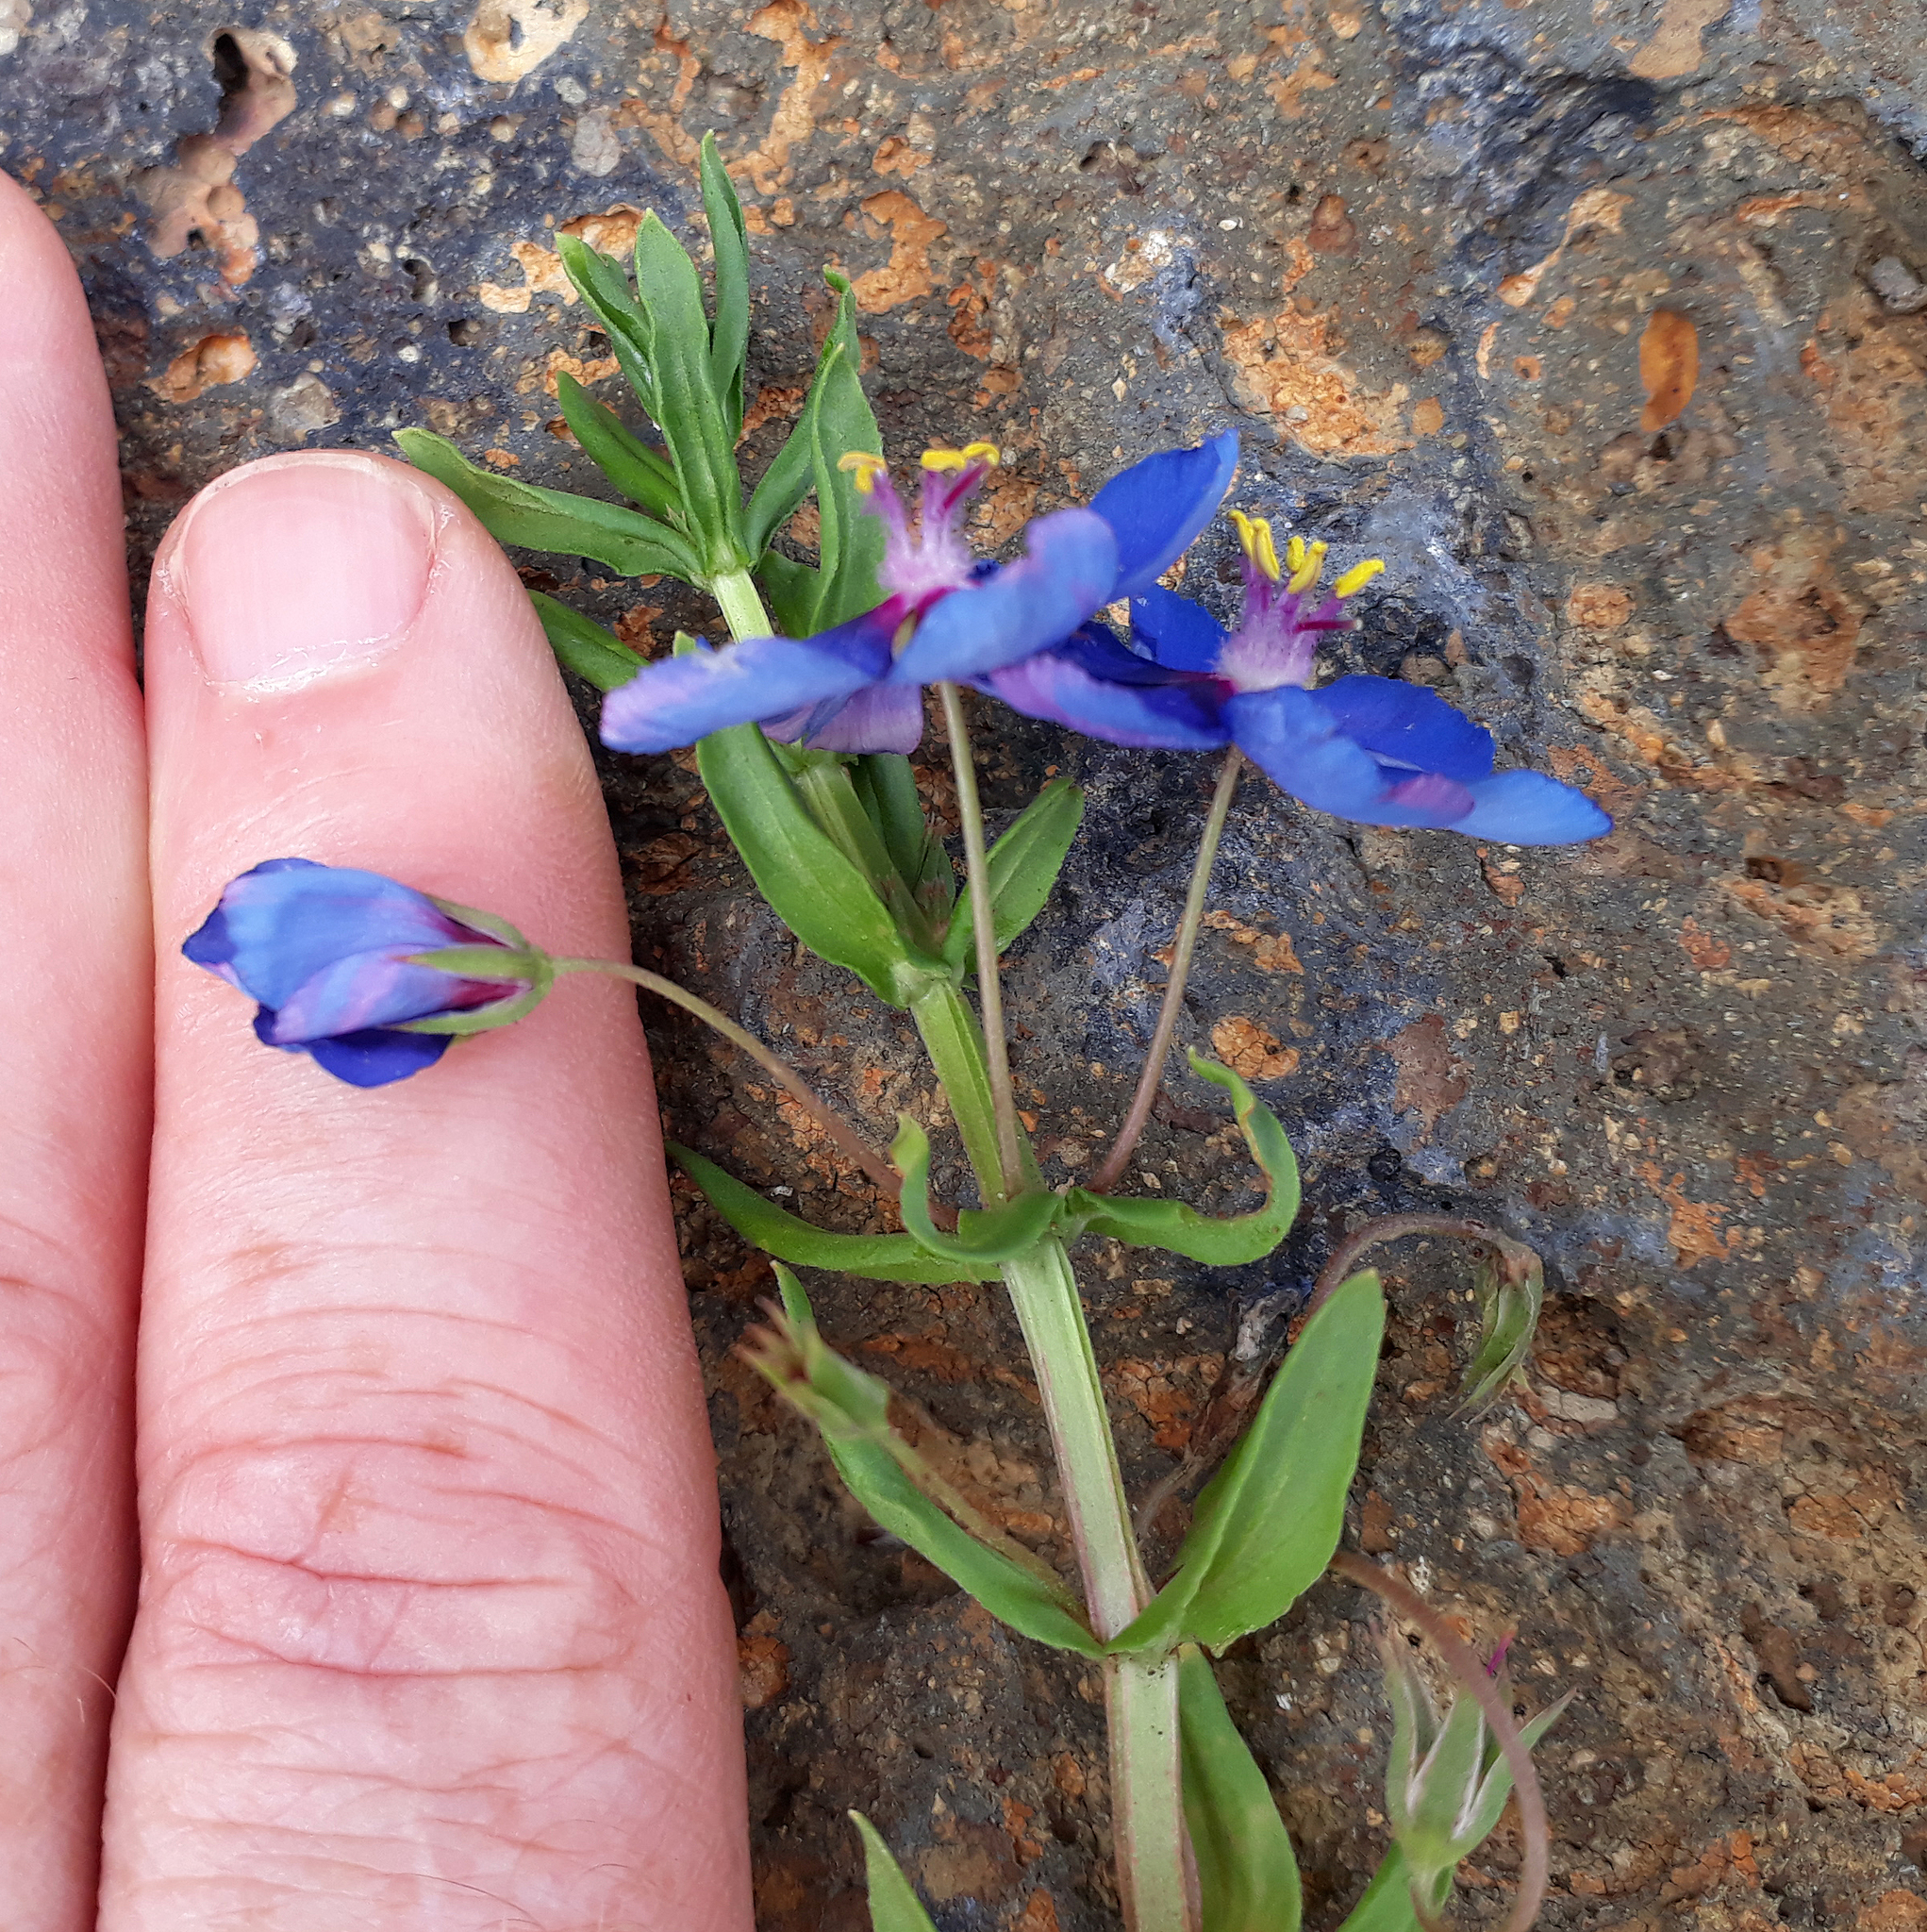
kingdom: Plantae
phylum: Tracheophyta
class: Magnoliopsida
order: Ericales
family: Primulaceae
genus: Lysimachia
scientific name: Lysimachia monelli
